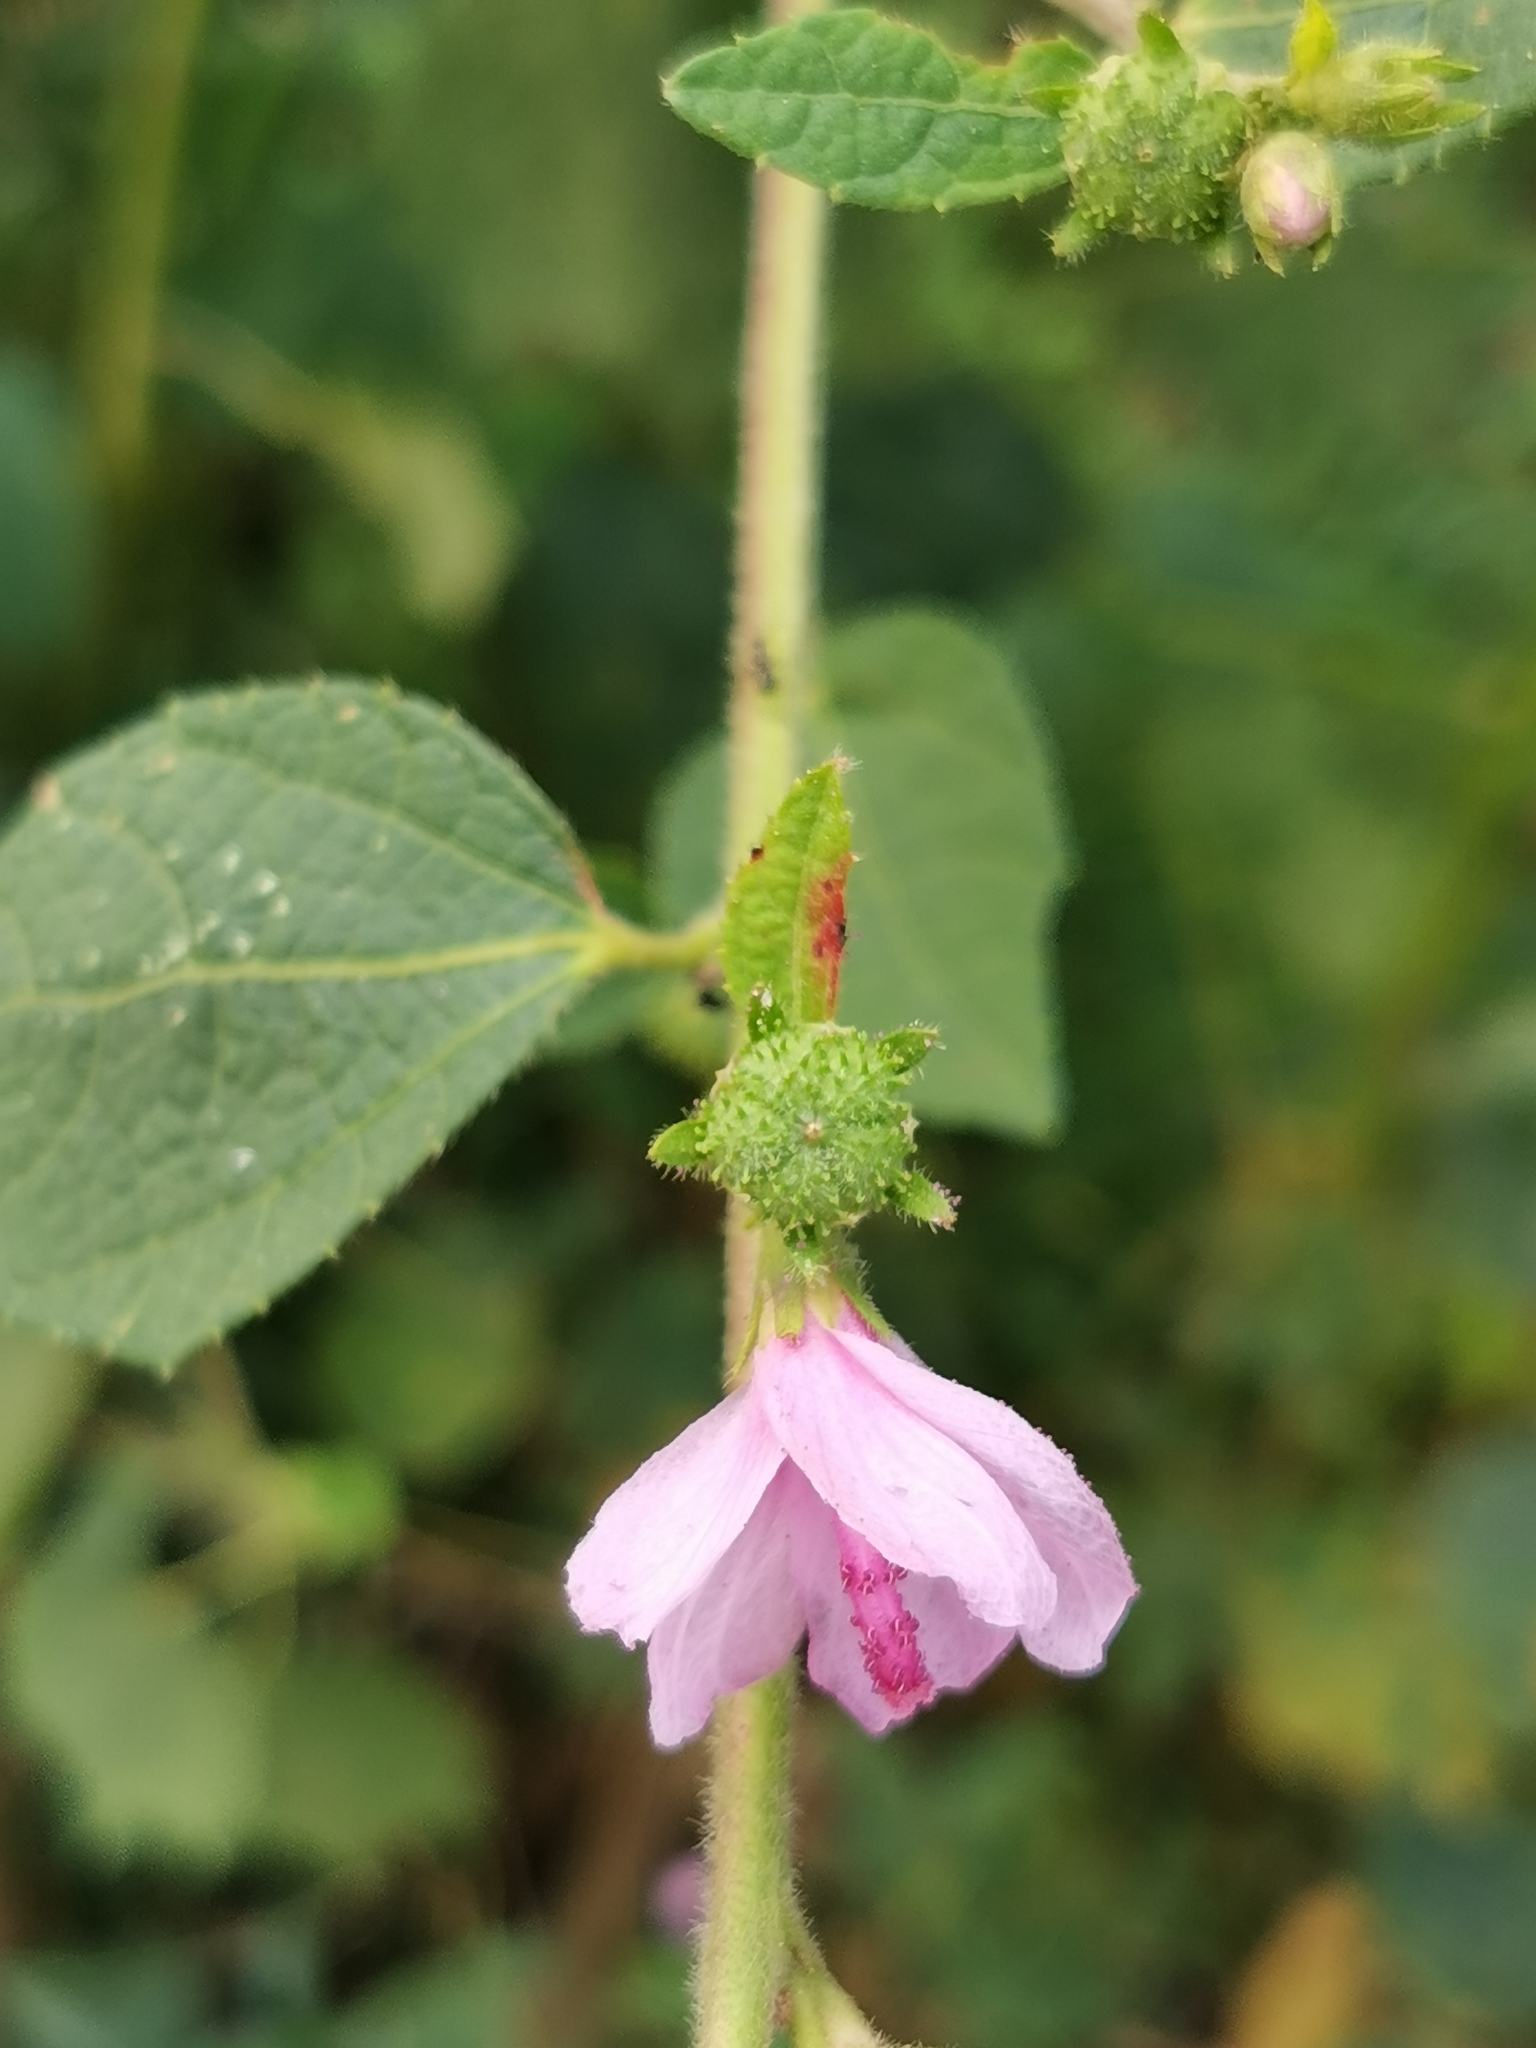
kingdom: Plantae
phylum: Tracheophyta
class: Magnoliopsida
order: Malvales
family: Malvaceae
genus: Urena
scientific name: Urena lobata
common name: Caesarweed
